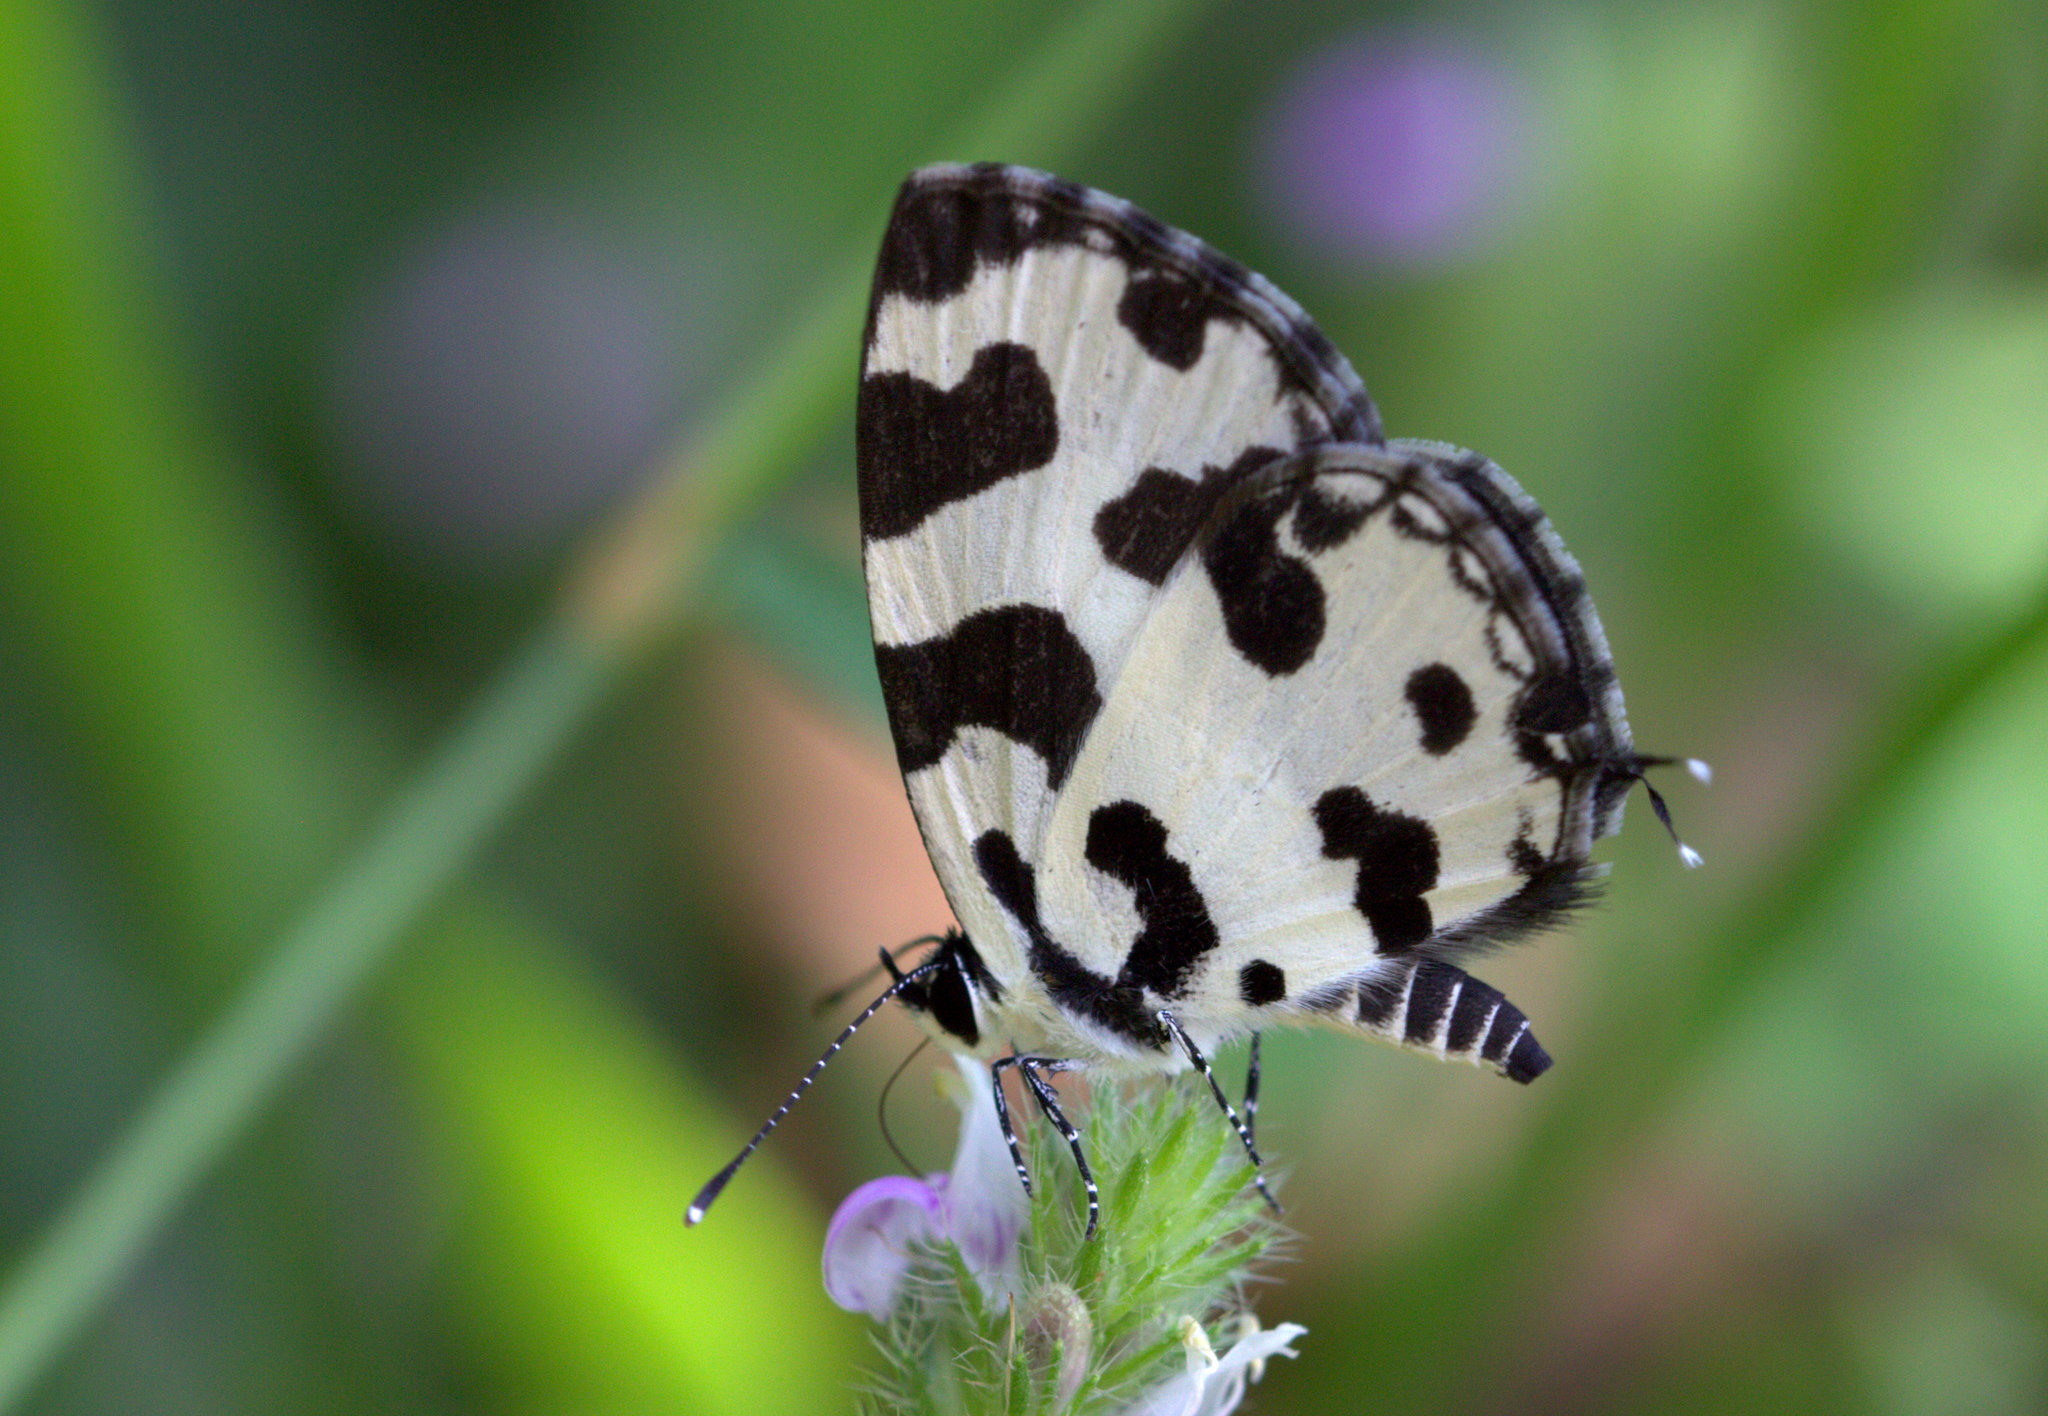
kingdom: Animalia
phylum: Arthropoda
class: Insecta
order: Lepidoptera
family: Lycaenidae
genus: Caleta
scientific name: Caleta decidia
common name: Angled pierrot
